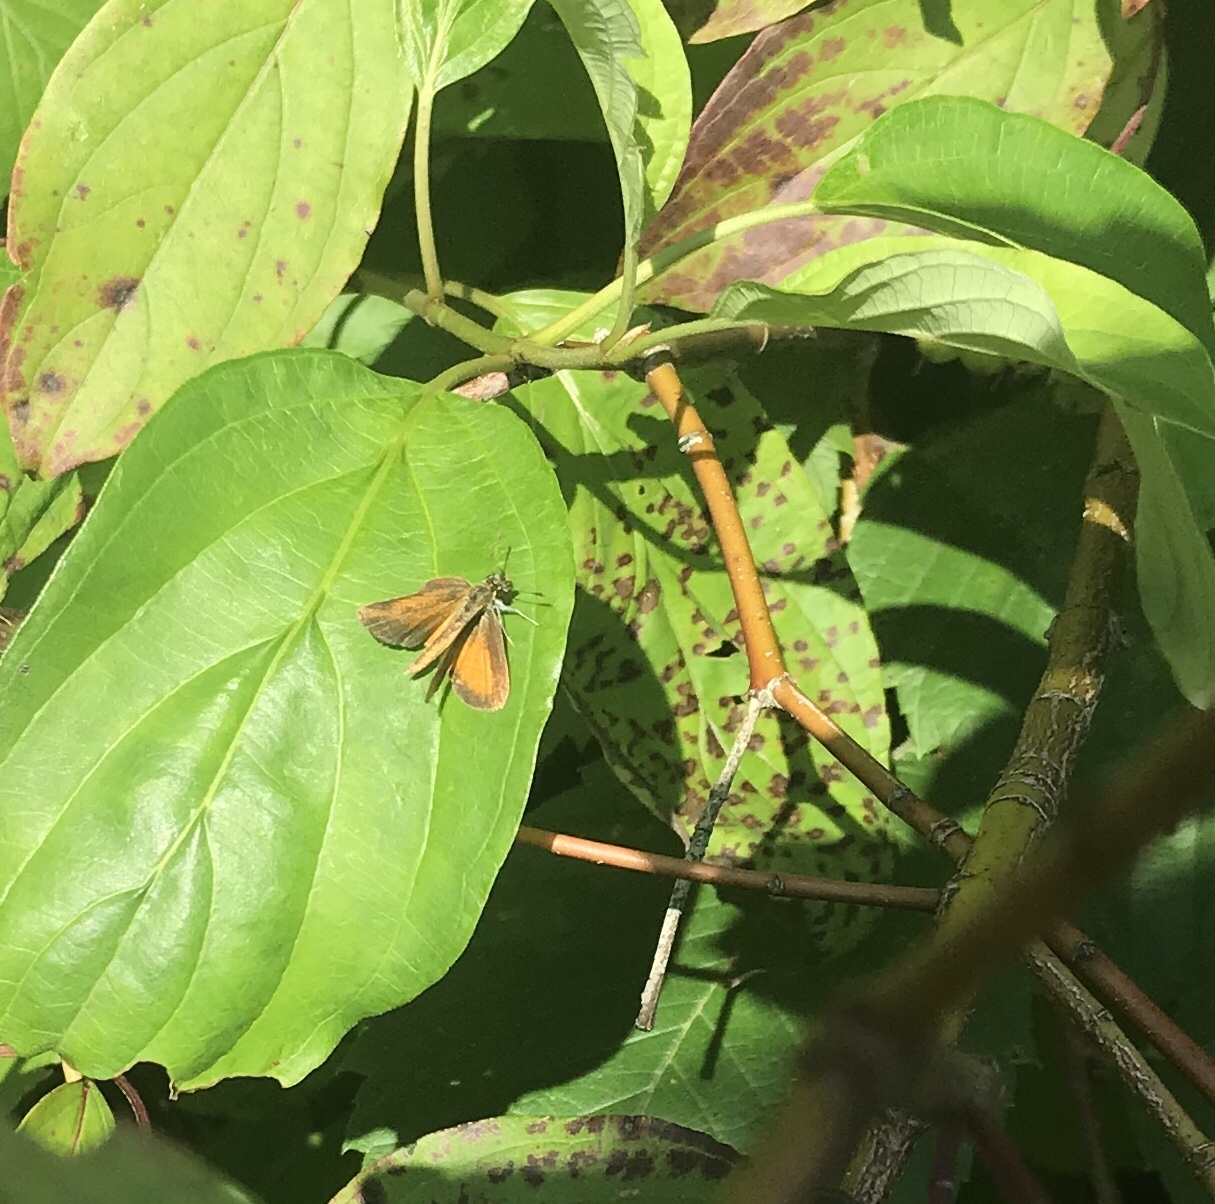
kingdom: Animalia
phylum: Arthropoda
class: Insecta
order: Lepidoptera
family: Hesperiidae
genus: Ancyloxypha
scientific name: Ancyloxypha numitor
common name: Least skipper
